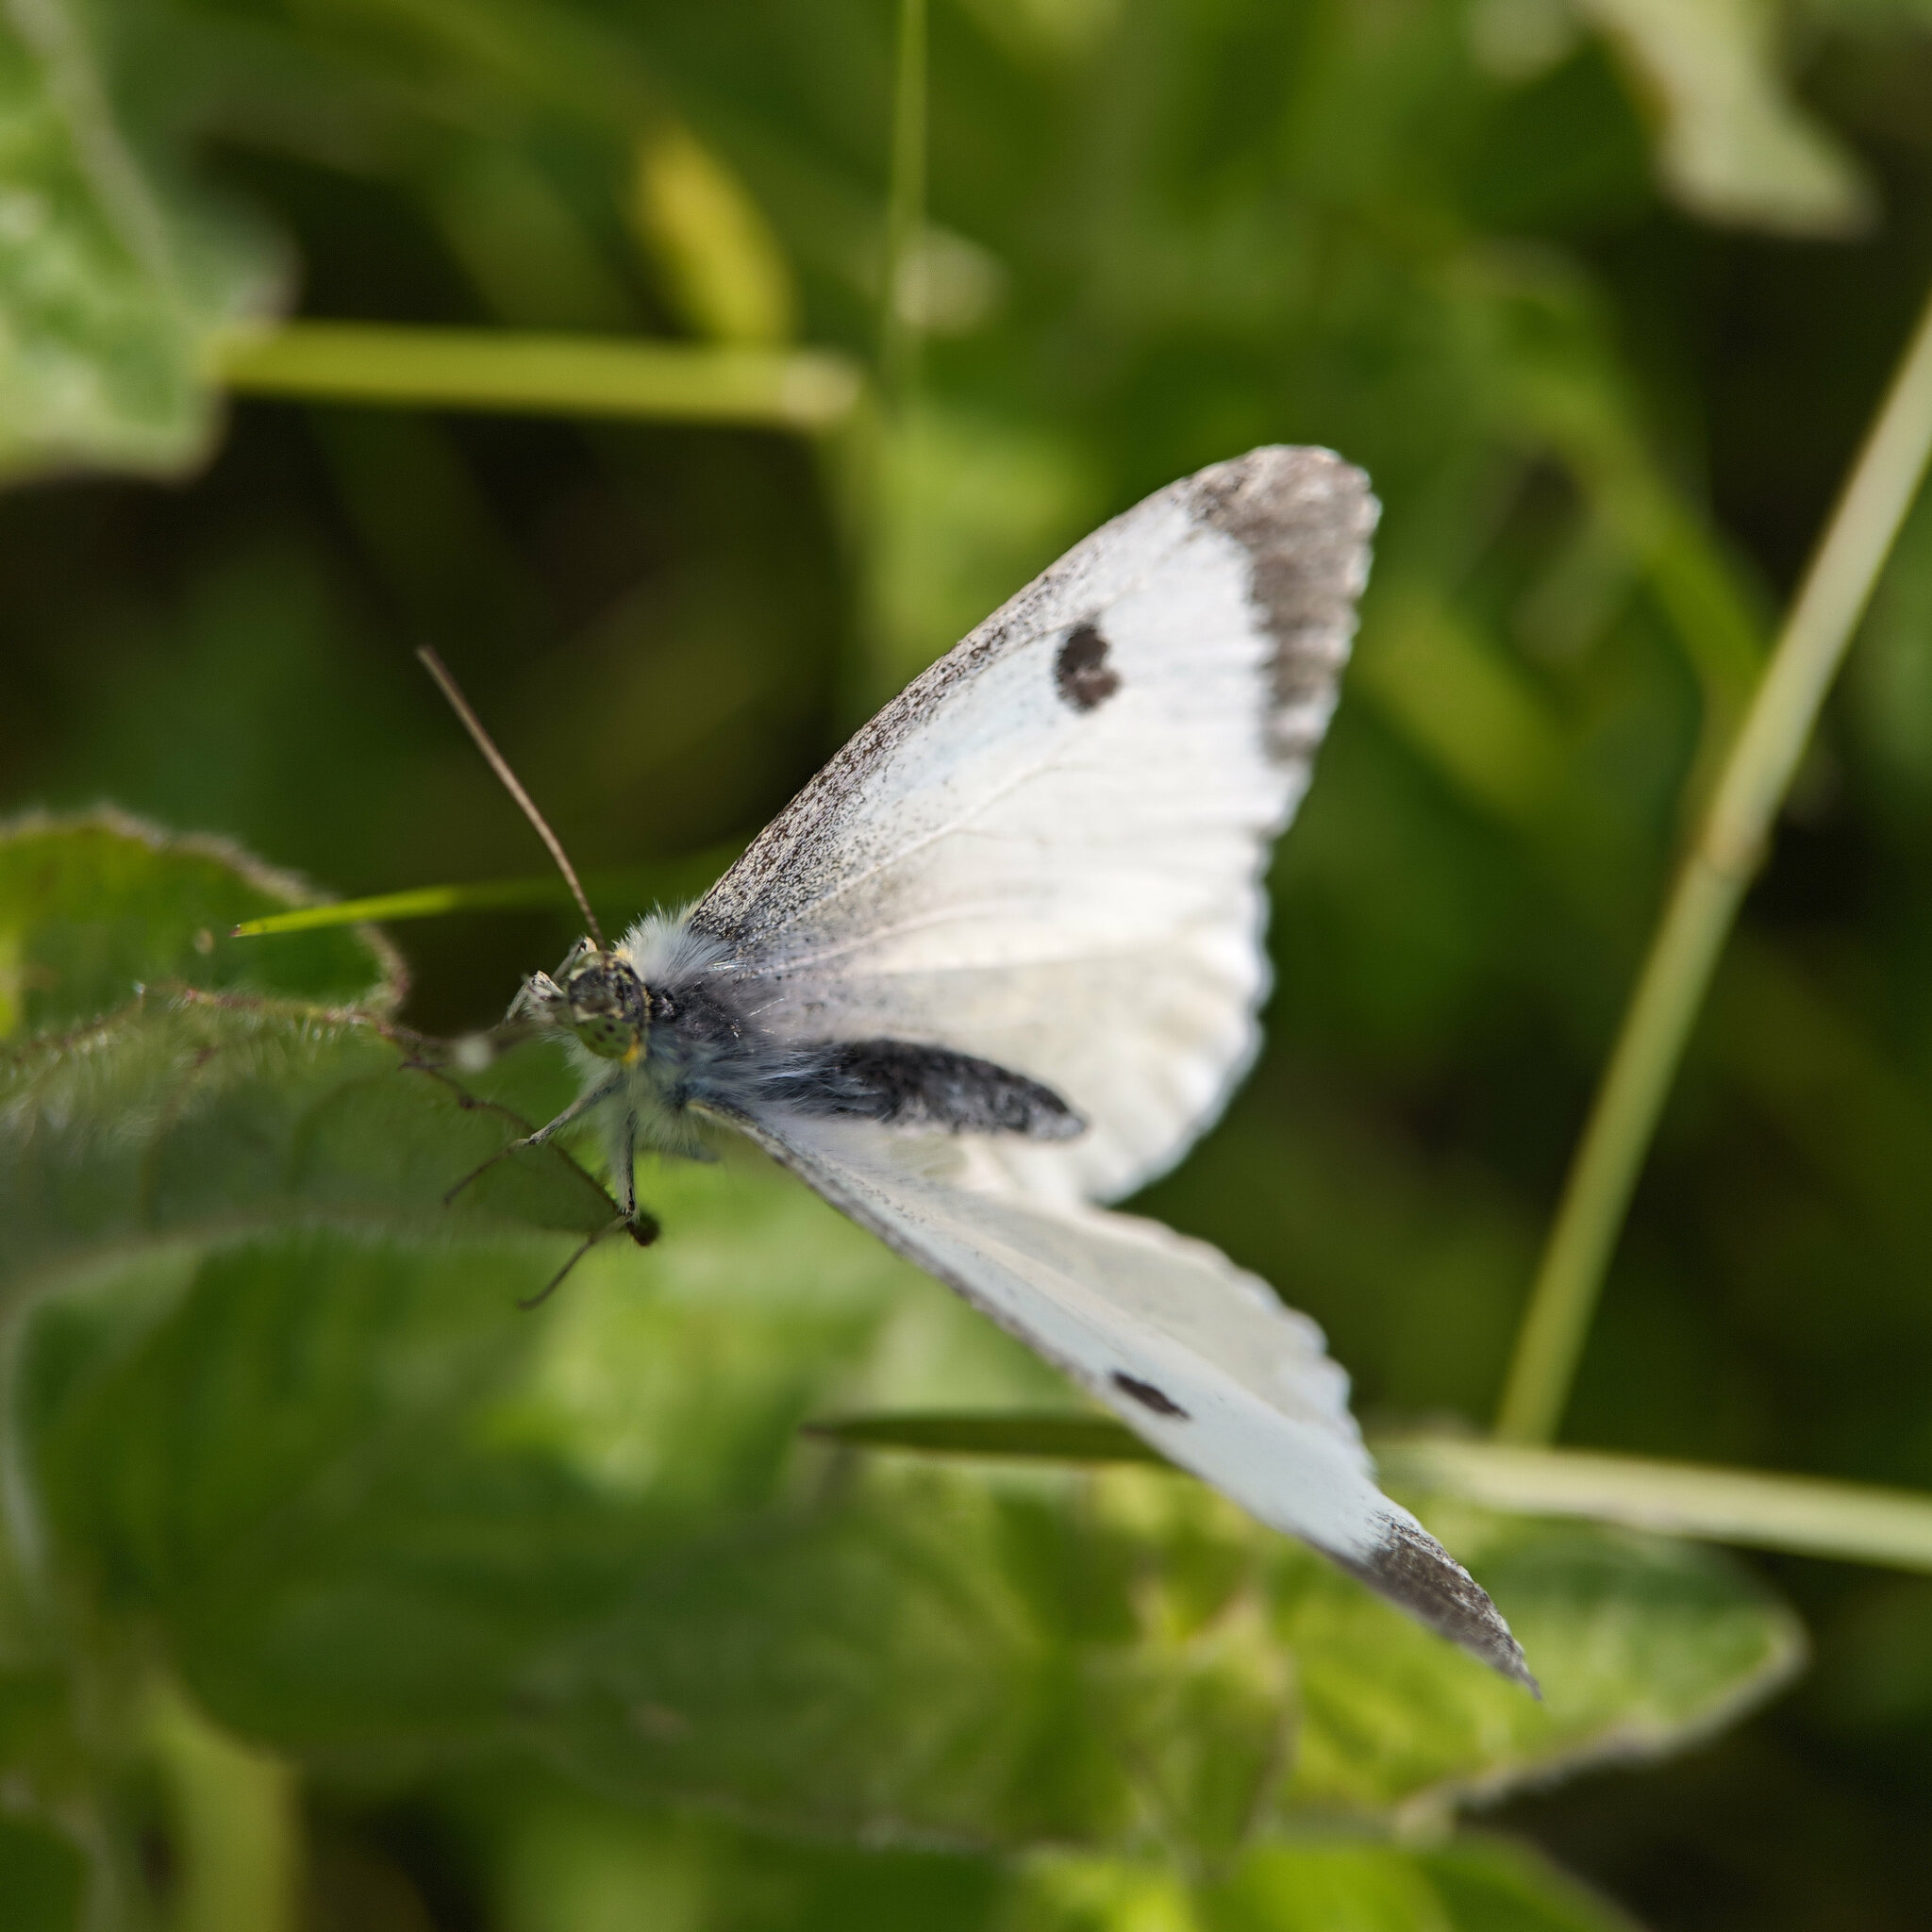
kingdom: Animalia
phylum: Arthropoda
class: Insecta
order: Lepidoptera
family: Pieridae
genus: Anthocharis
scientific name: Anthocharis cardamines
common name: Orange-tip
